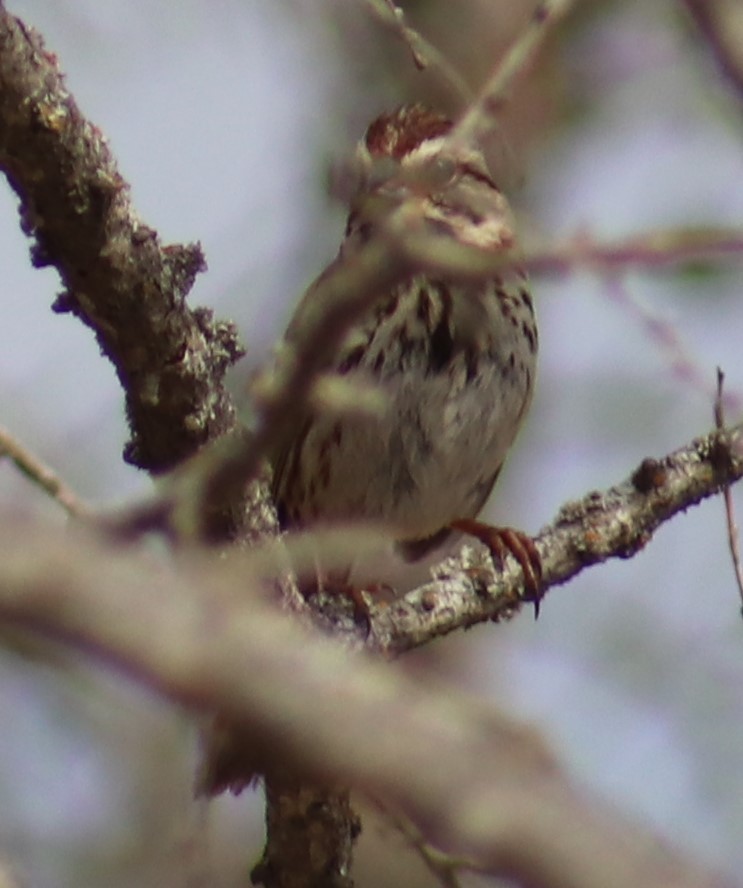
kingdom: Animalia
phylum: Chordata
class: Aves
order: Passeriformes
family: Passerellidae
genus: Melospiza
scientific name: Melospiza melodia
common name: Song sparrow
